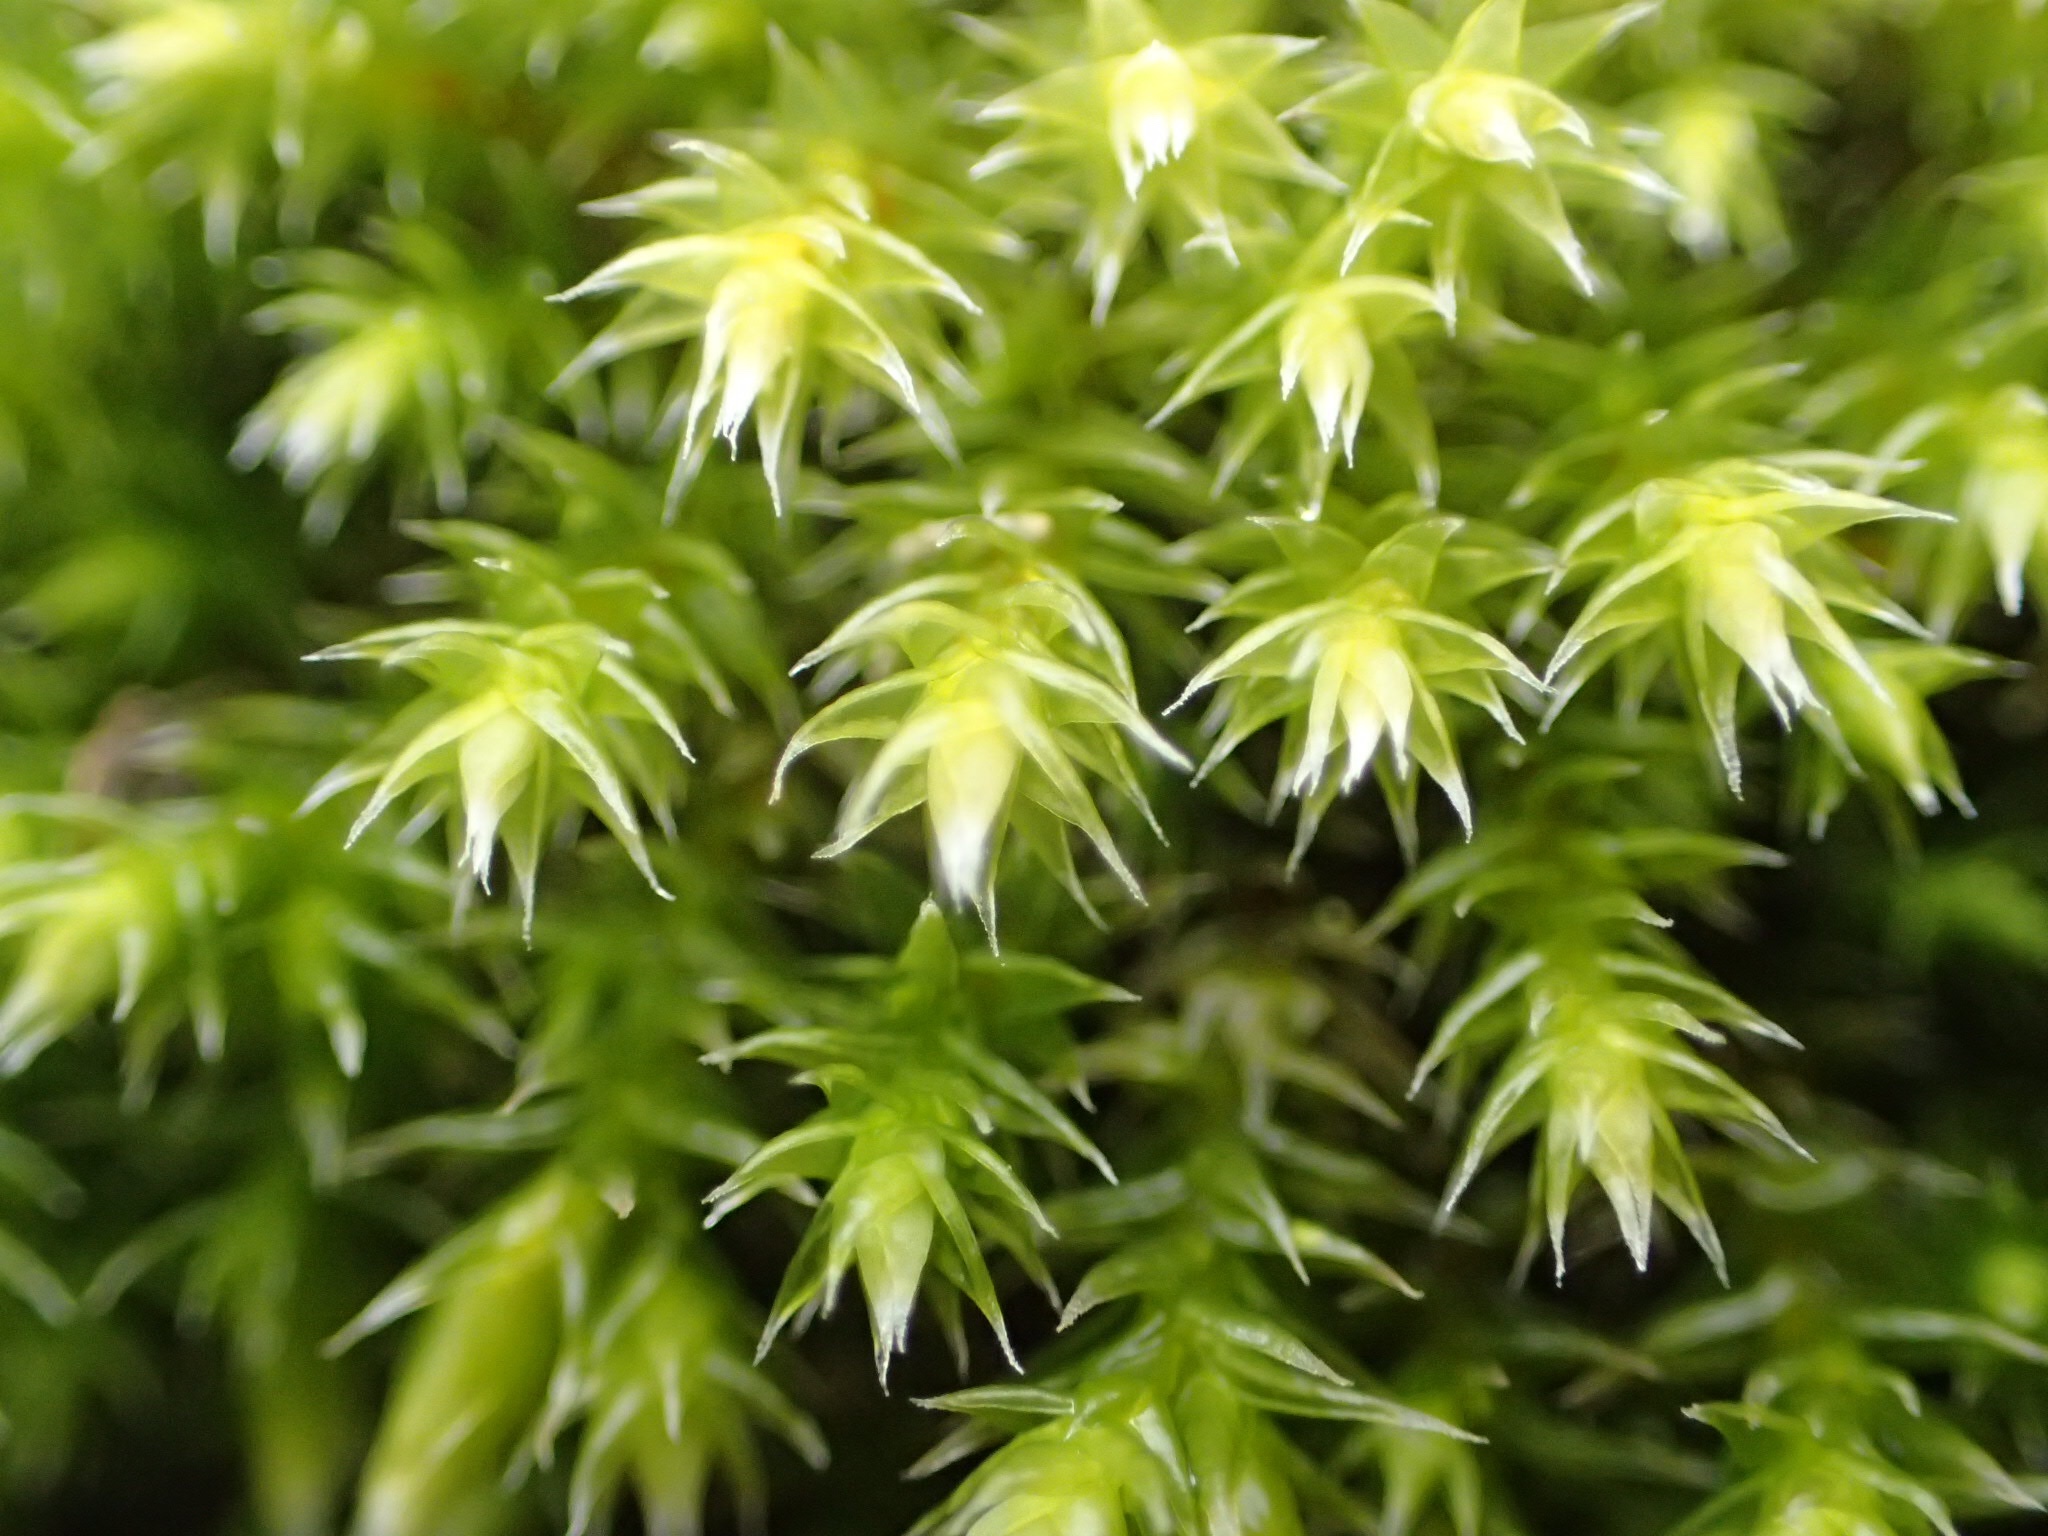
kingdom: Plantae
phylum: Bryophyta
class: Bryopsida
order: Hedwigiales
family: Hedwigiaceae
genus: Hedwigia
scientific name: Hedwigia ciliata
